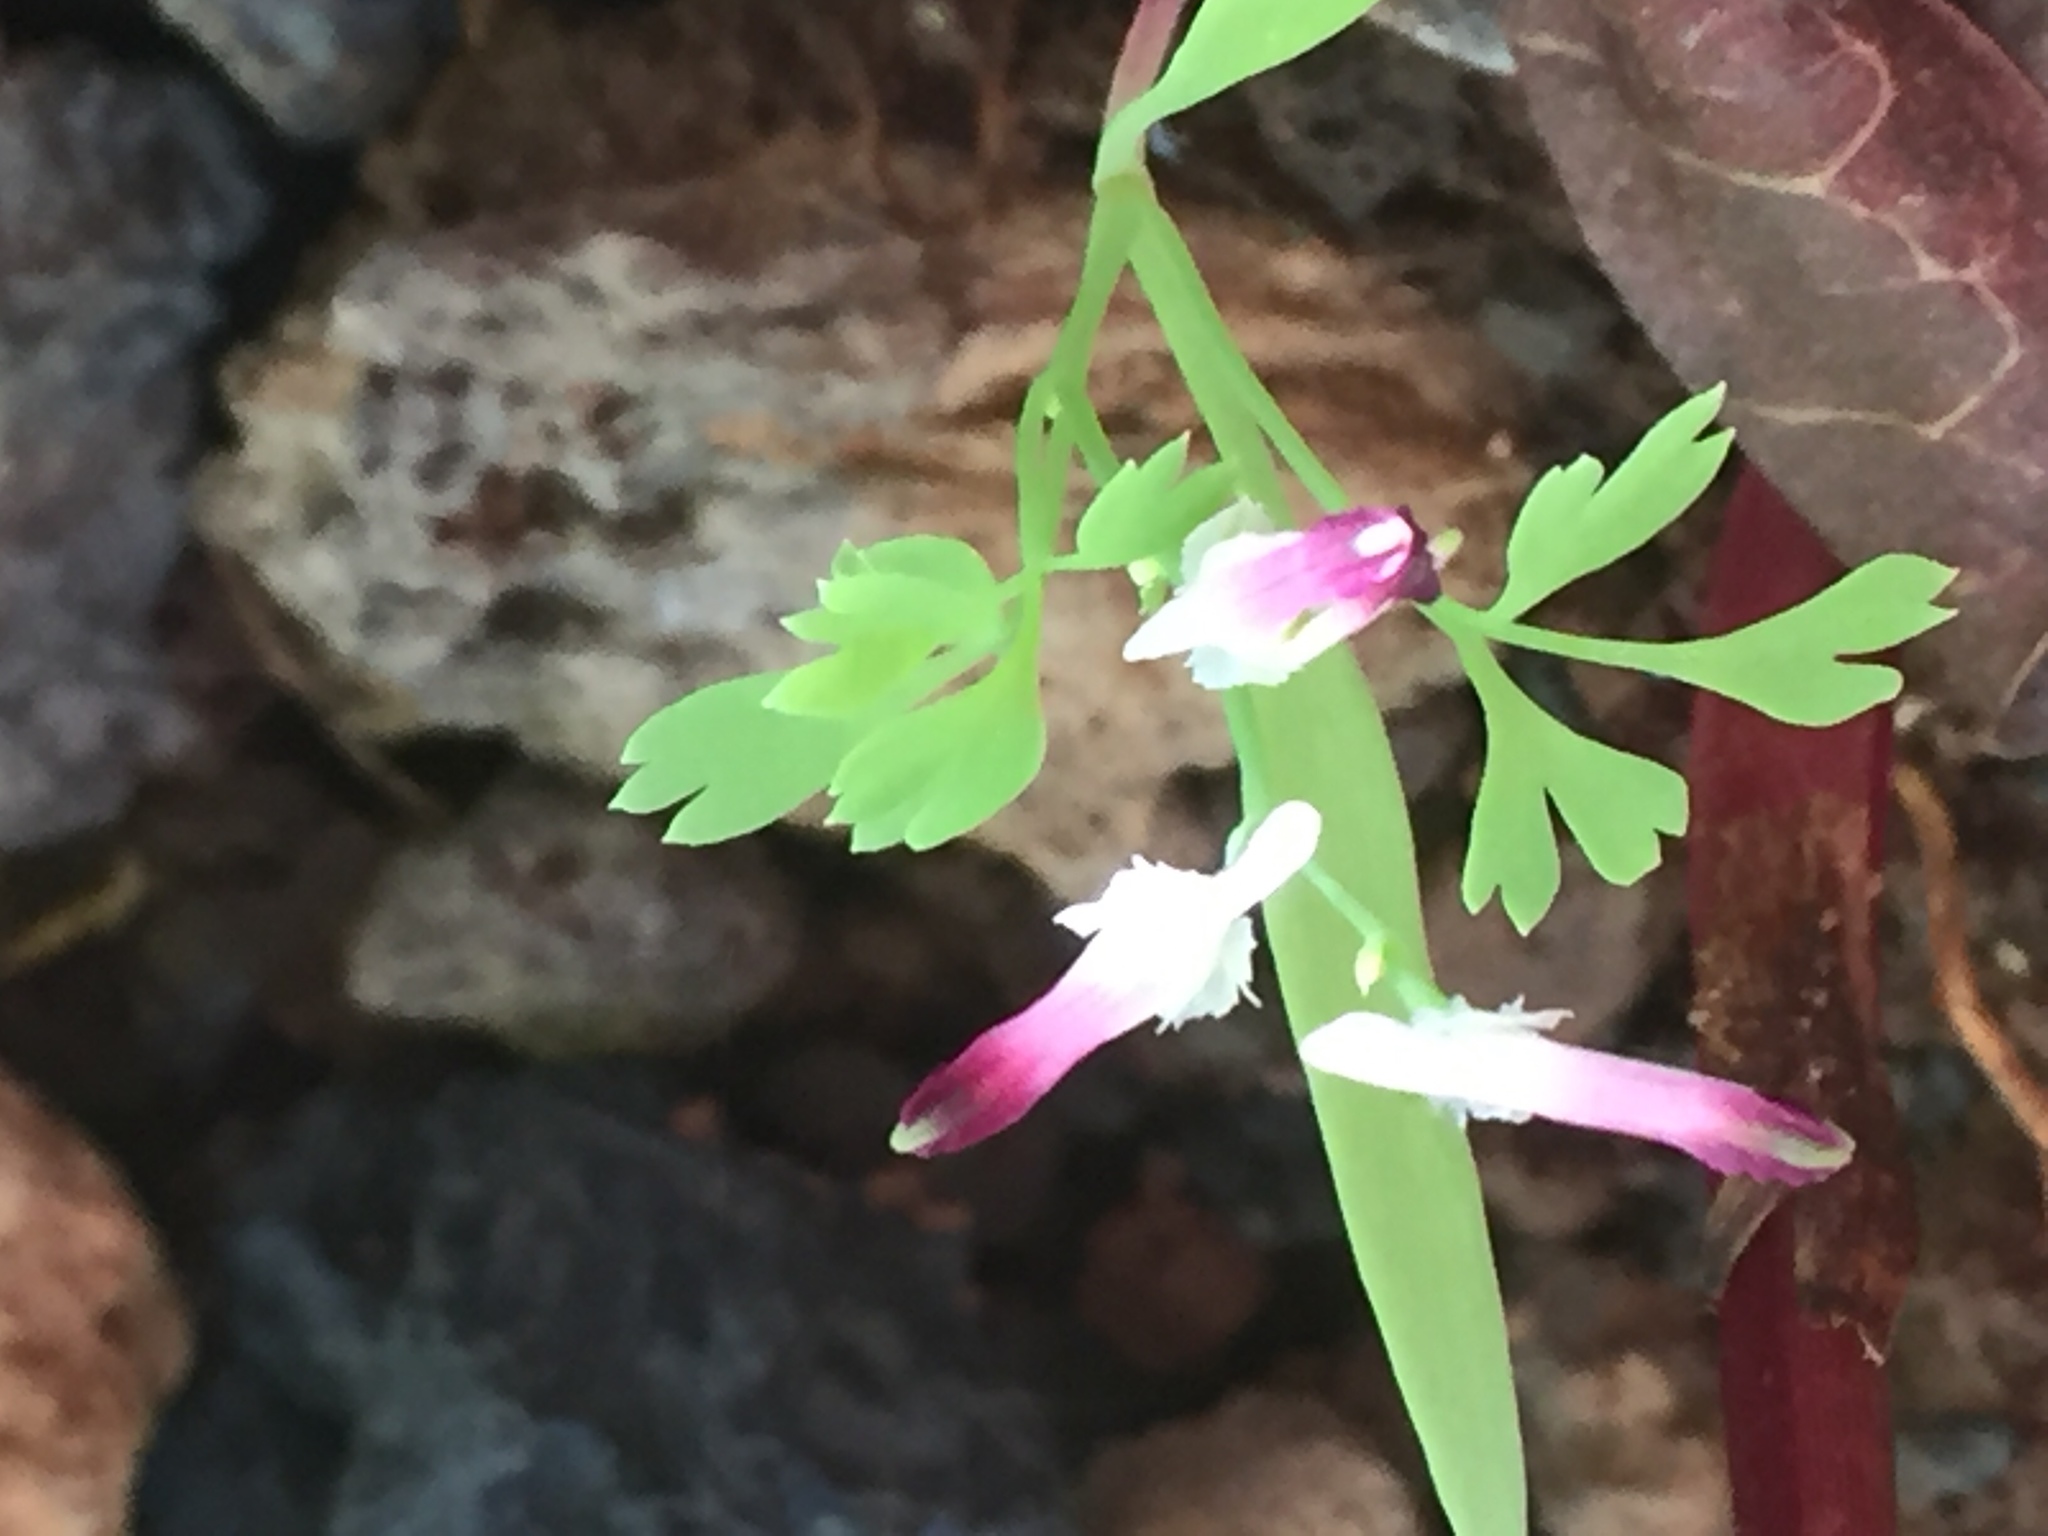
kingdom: Plantae
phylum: Tracheophyta
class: Magnoliopsida
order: Ranunculales
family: Papaveraceae
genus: Fumaria
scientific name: Fumaria capreolata
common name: White ramping-fumitory
